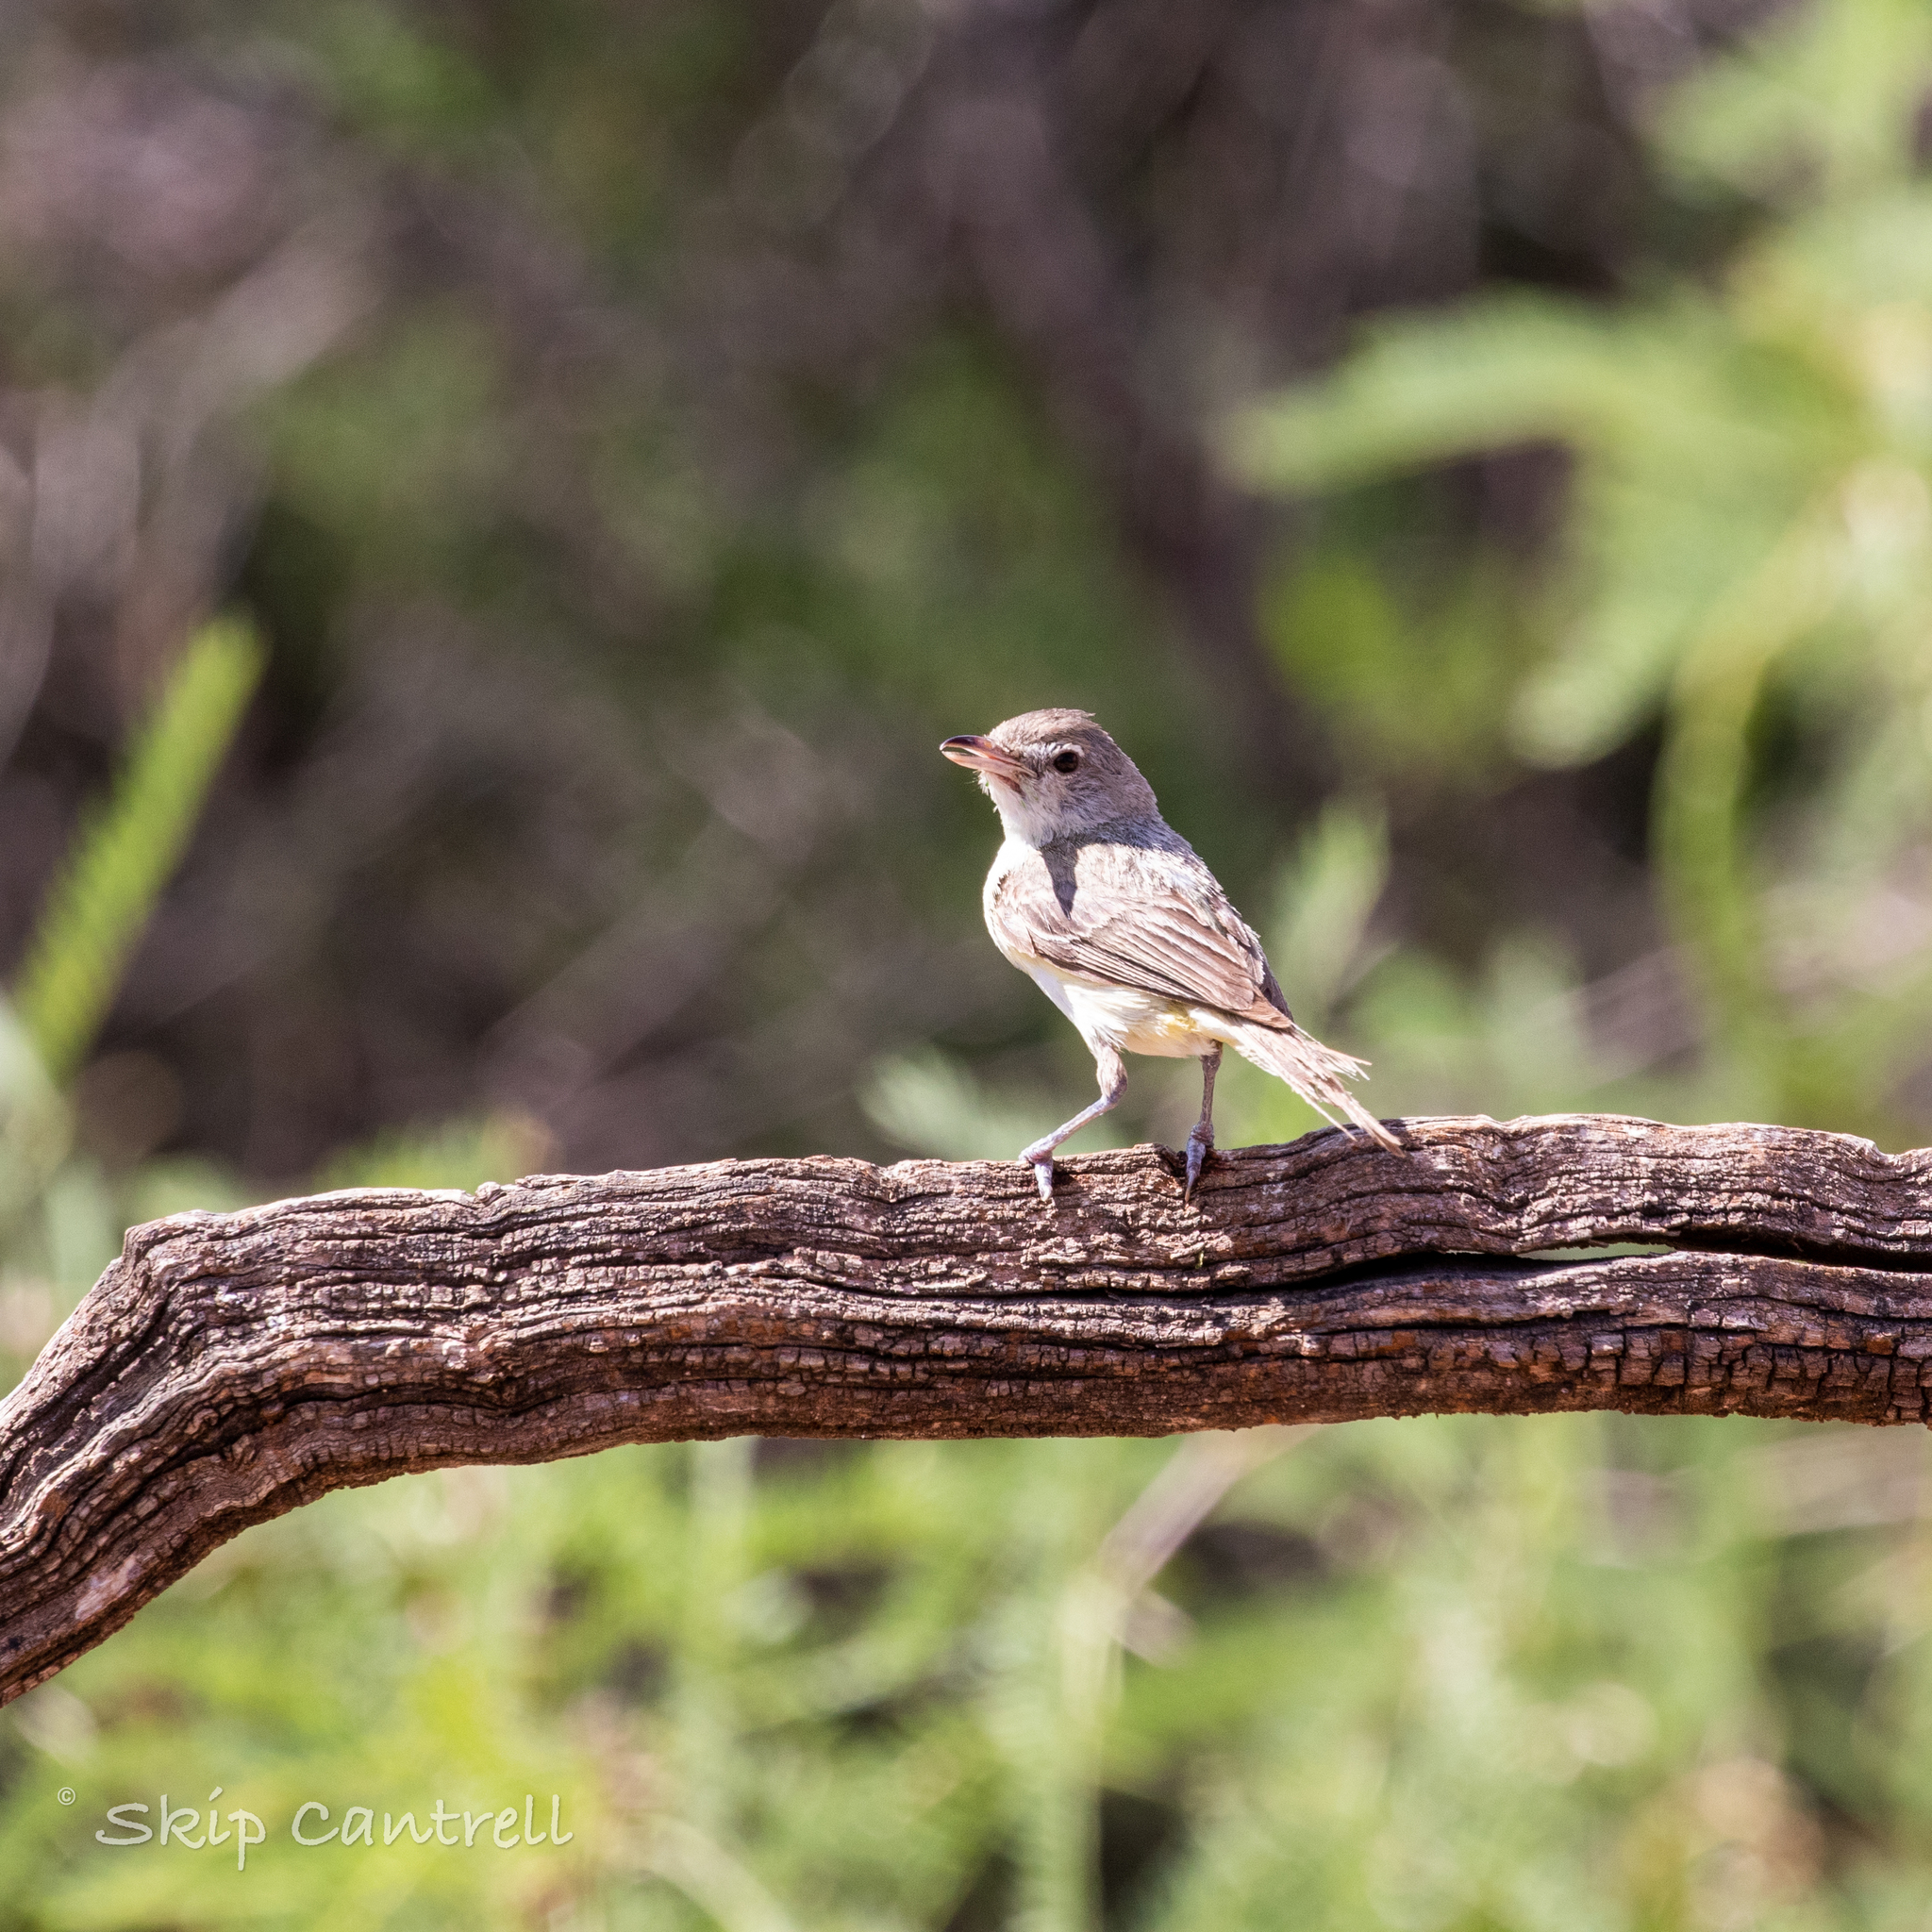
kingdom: Animalia
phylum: Chordata
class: Aves
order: Passeriformes
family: Vireonidae
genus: Vireo
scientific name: Vireo bellii
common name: Bell's vireo
